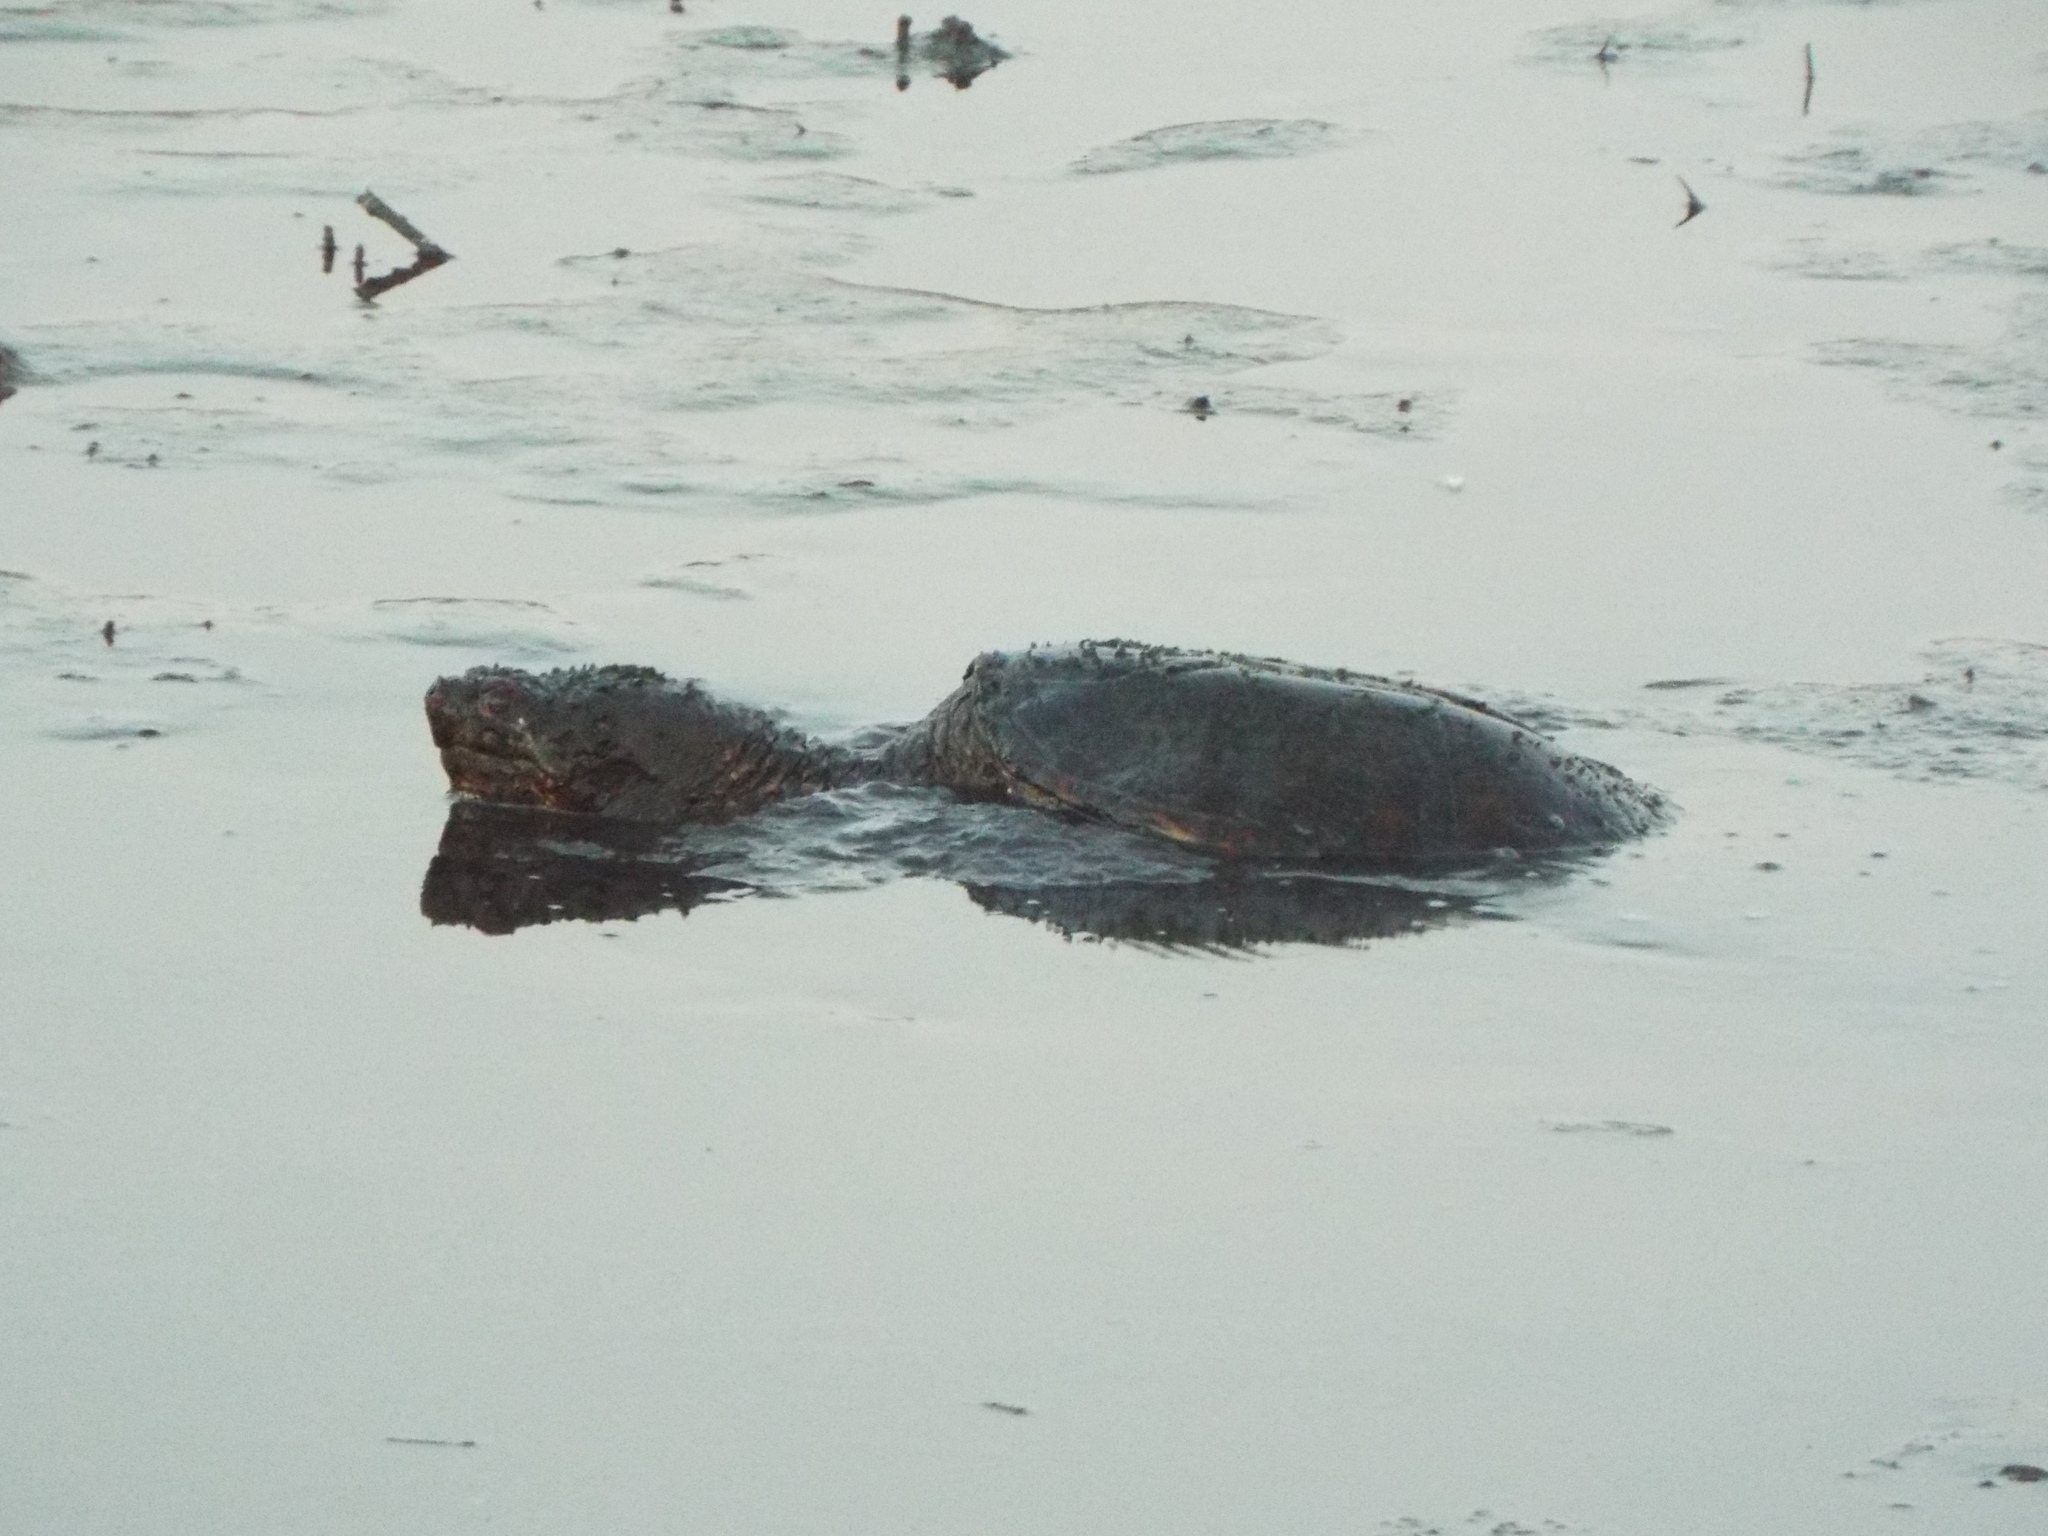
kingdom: Animalia
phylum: Chordata
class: Testudines
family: Chelydridae
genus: Chelydra
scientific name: Chelydra serpentina
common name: Common snapping turtle
